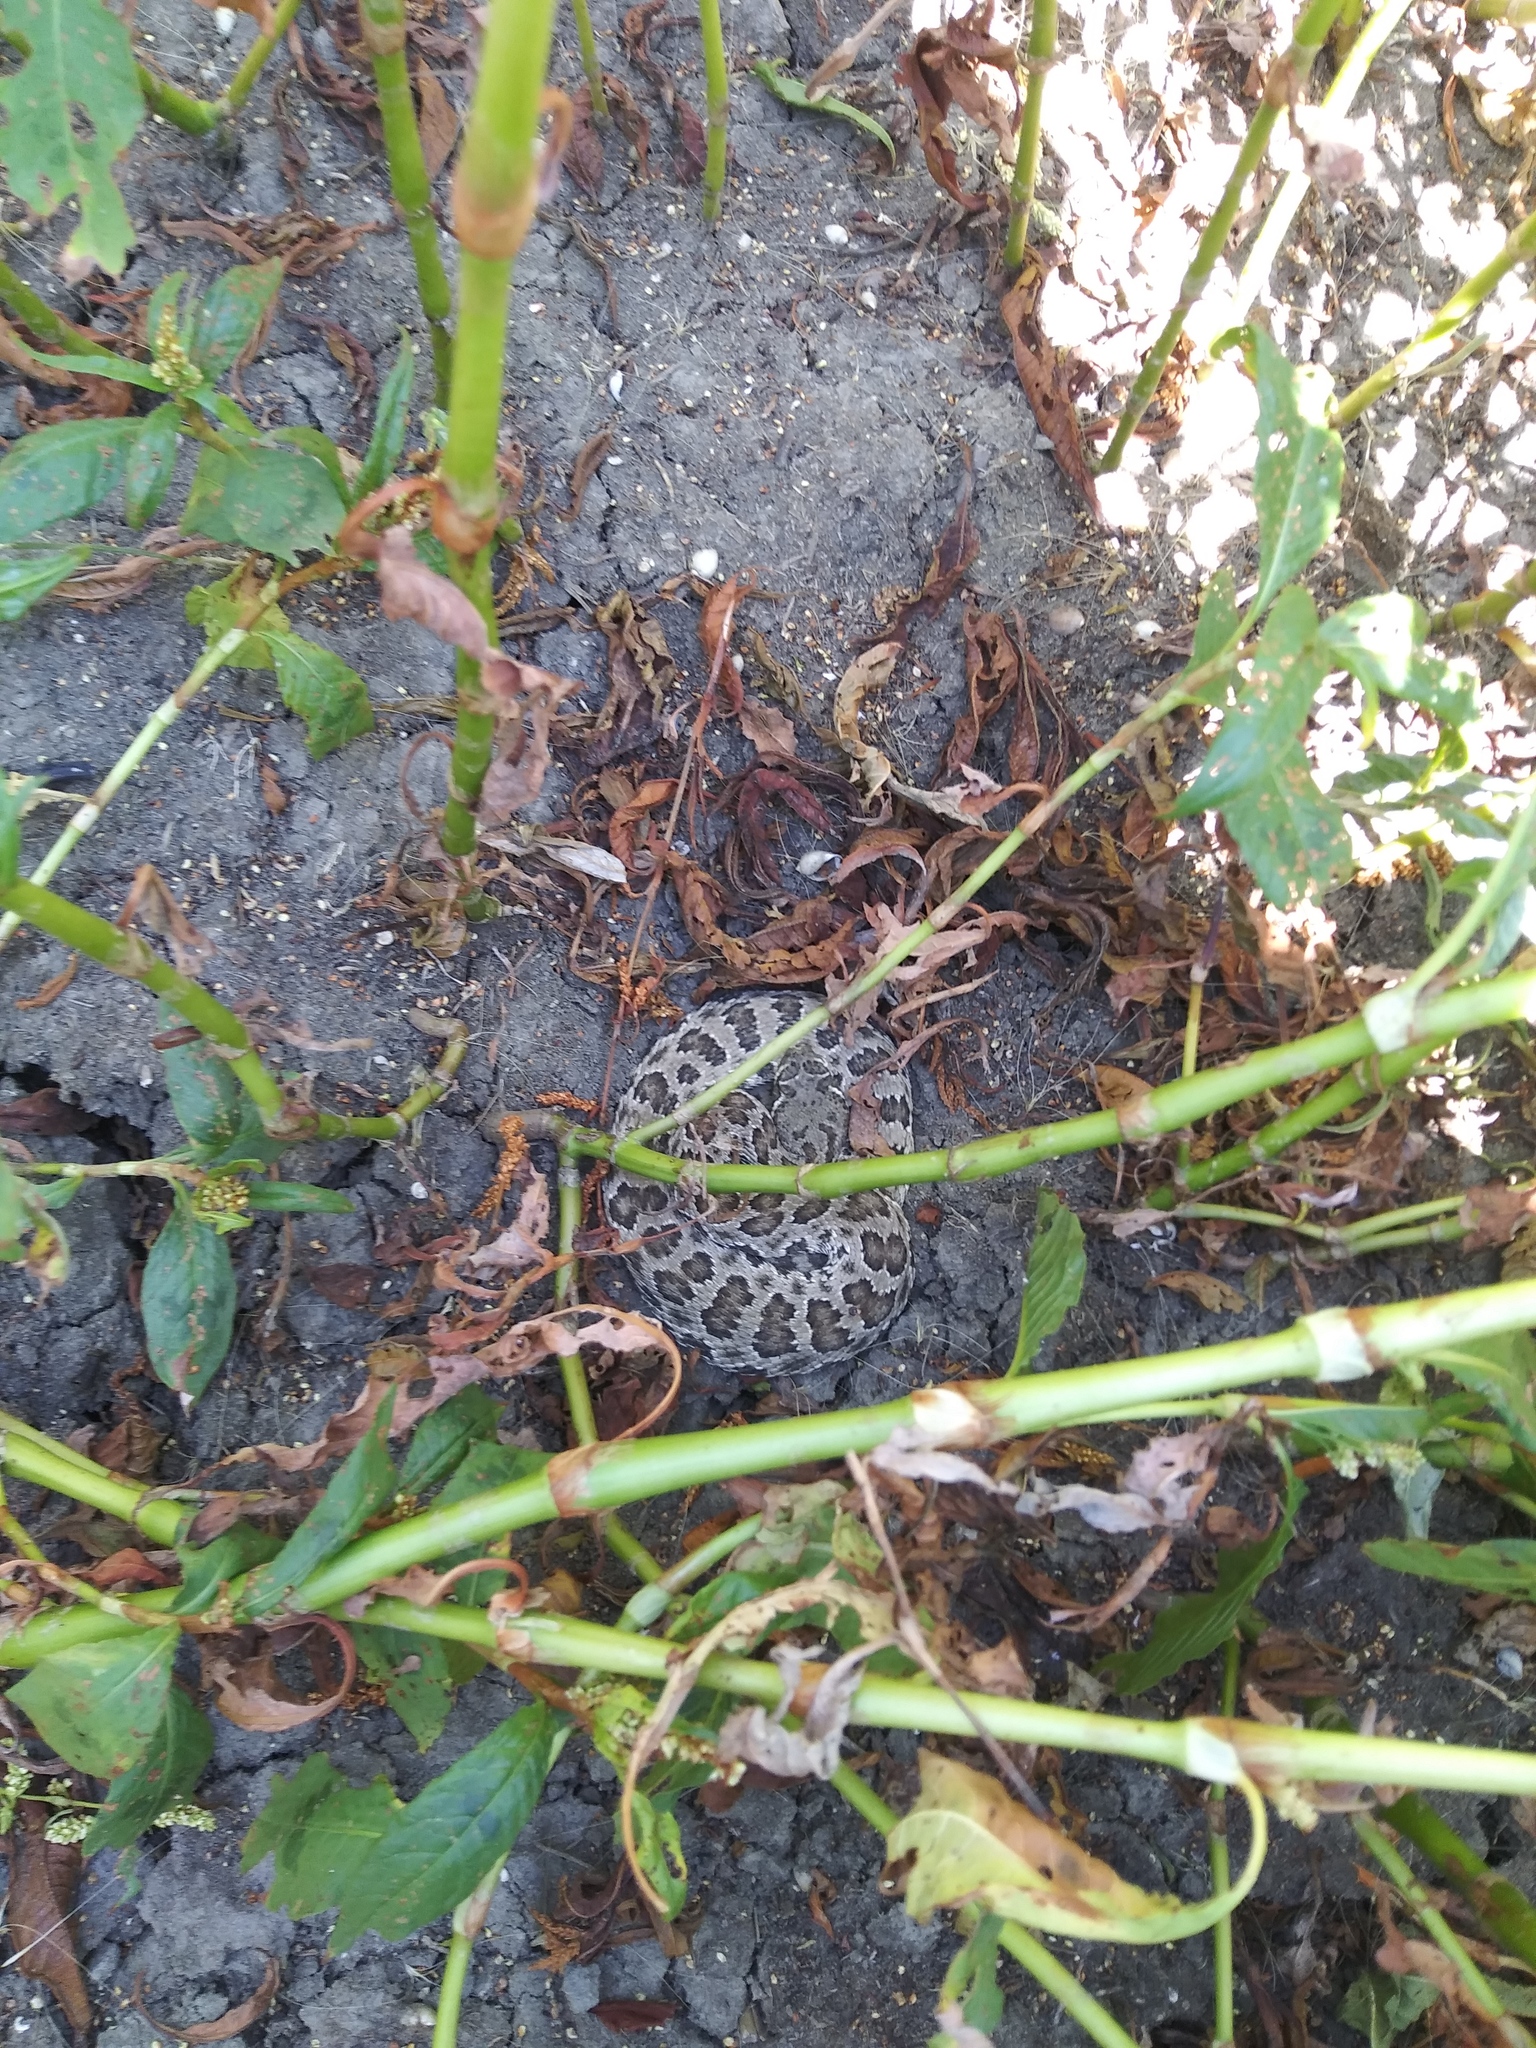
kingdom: Animalia
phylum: Chordata
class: Squamata
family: Viperidae
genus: Crotalus
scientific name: Crotalus viridis
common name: Prairie rattlesnake
